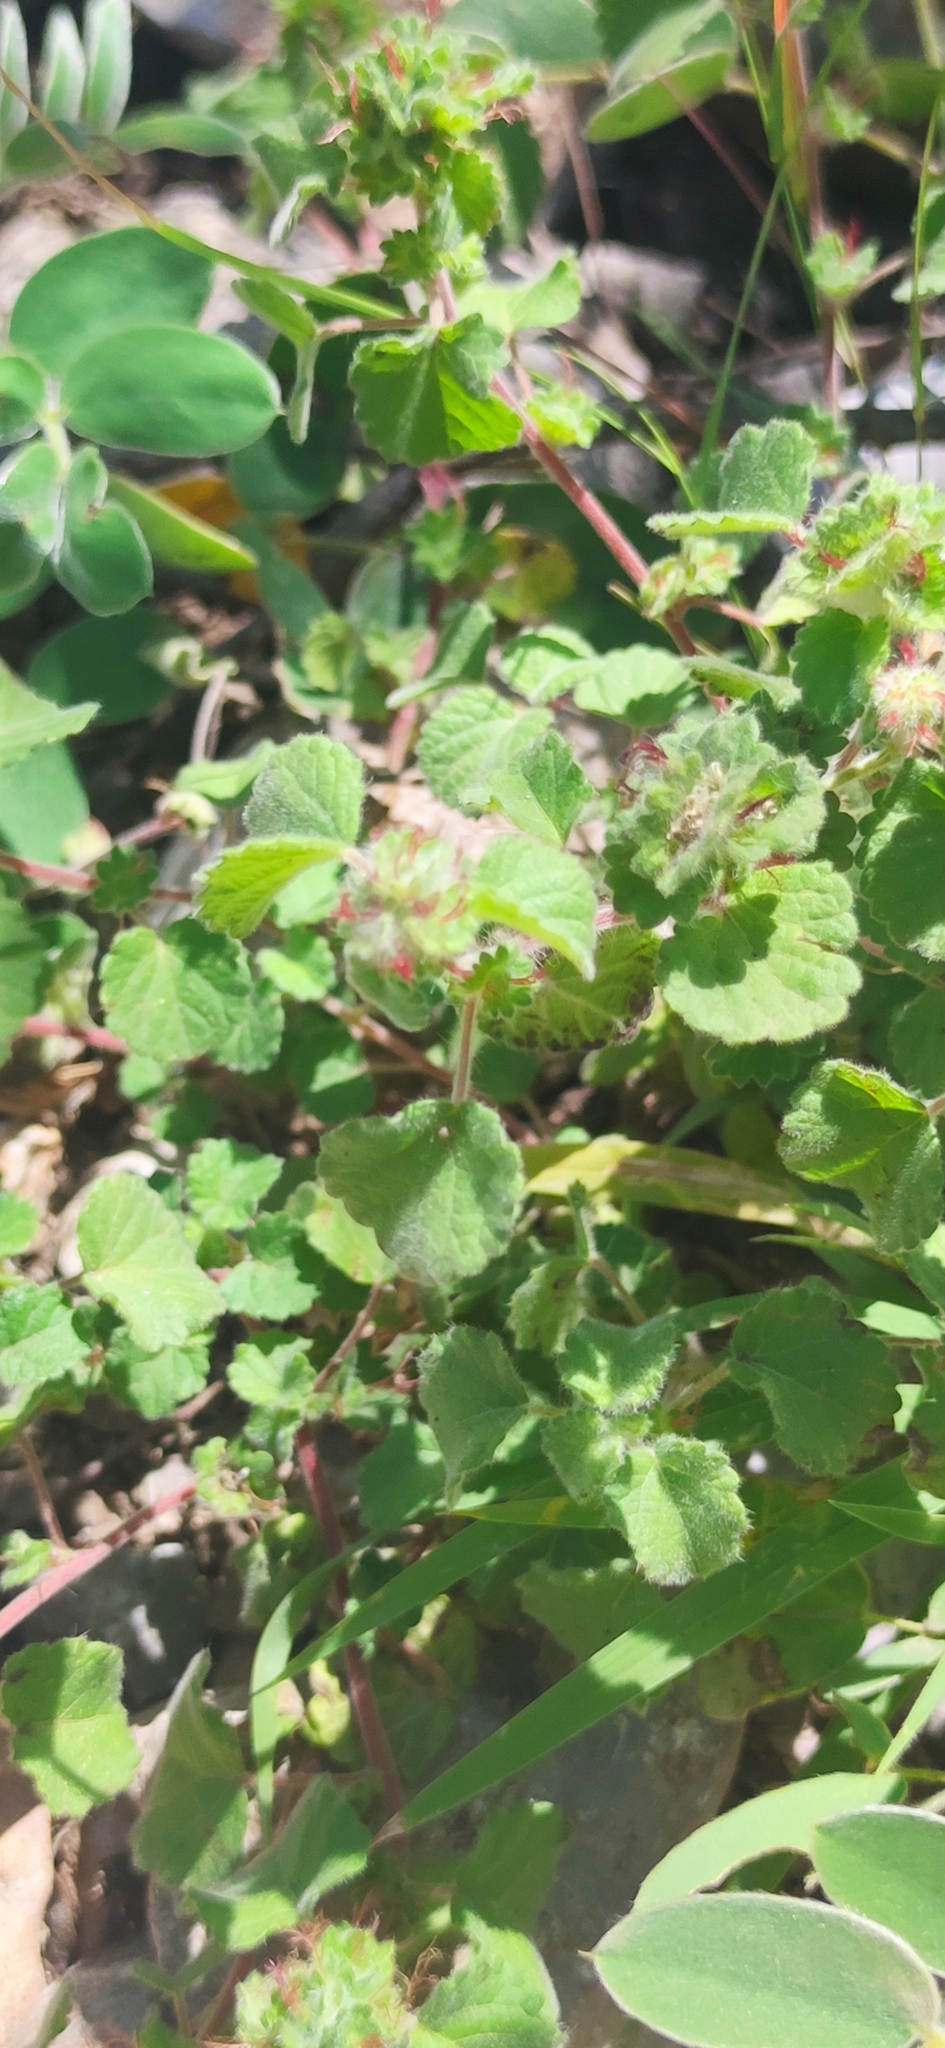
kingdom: Plantae
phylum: Tracheophyta
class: Magnoliopsida
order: Malpighiales
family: Euphorbiaceae
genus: Acalypha
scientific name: Acalypha monostachya
